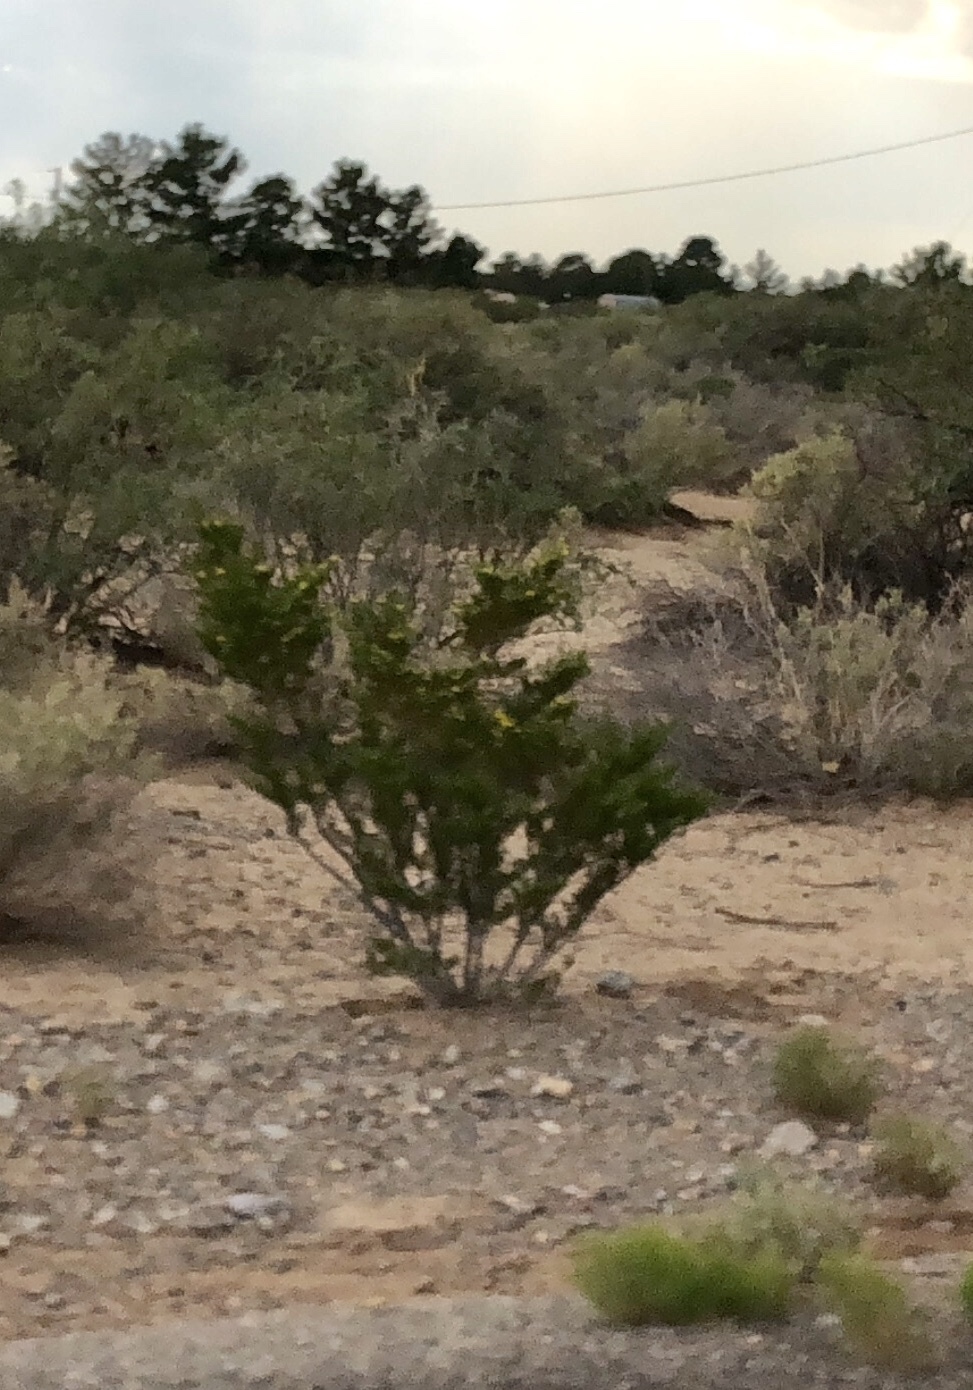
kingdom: Plantae
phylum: Tracheophyta
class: Magnoliopsida
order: Zygophyllales
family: Zygophyllaceae
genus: Larrea
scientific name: Larrea tridentata
